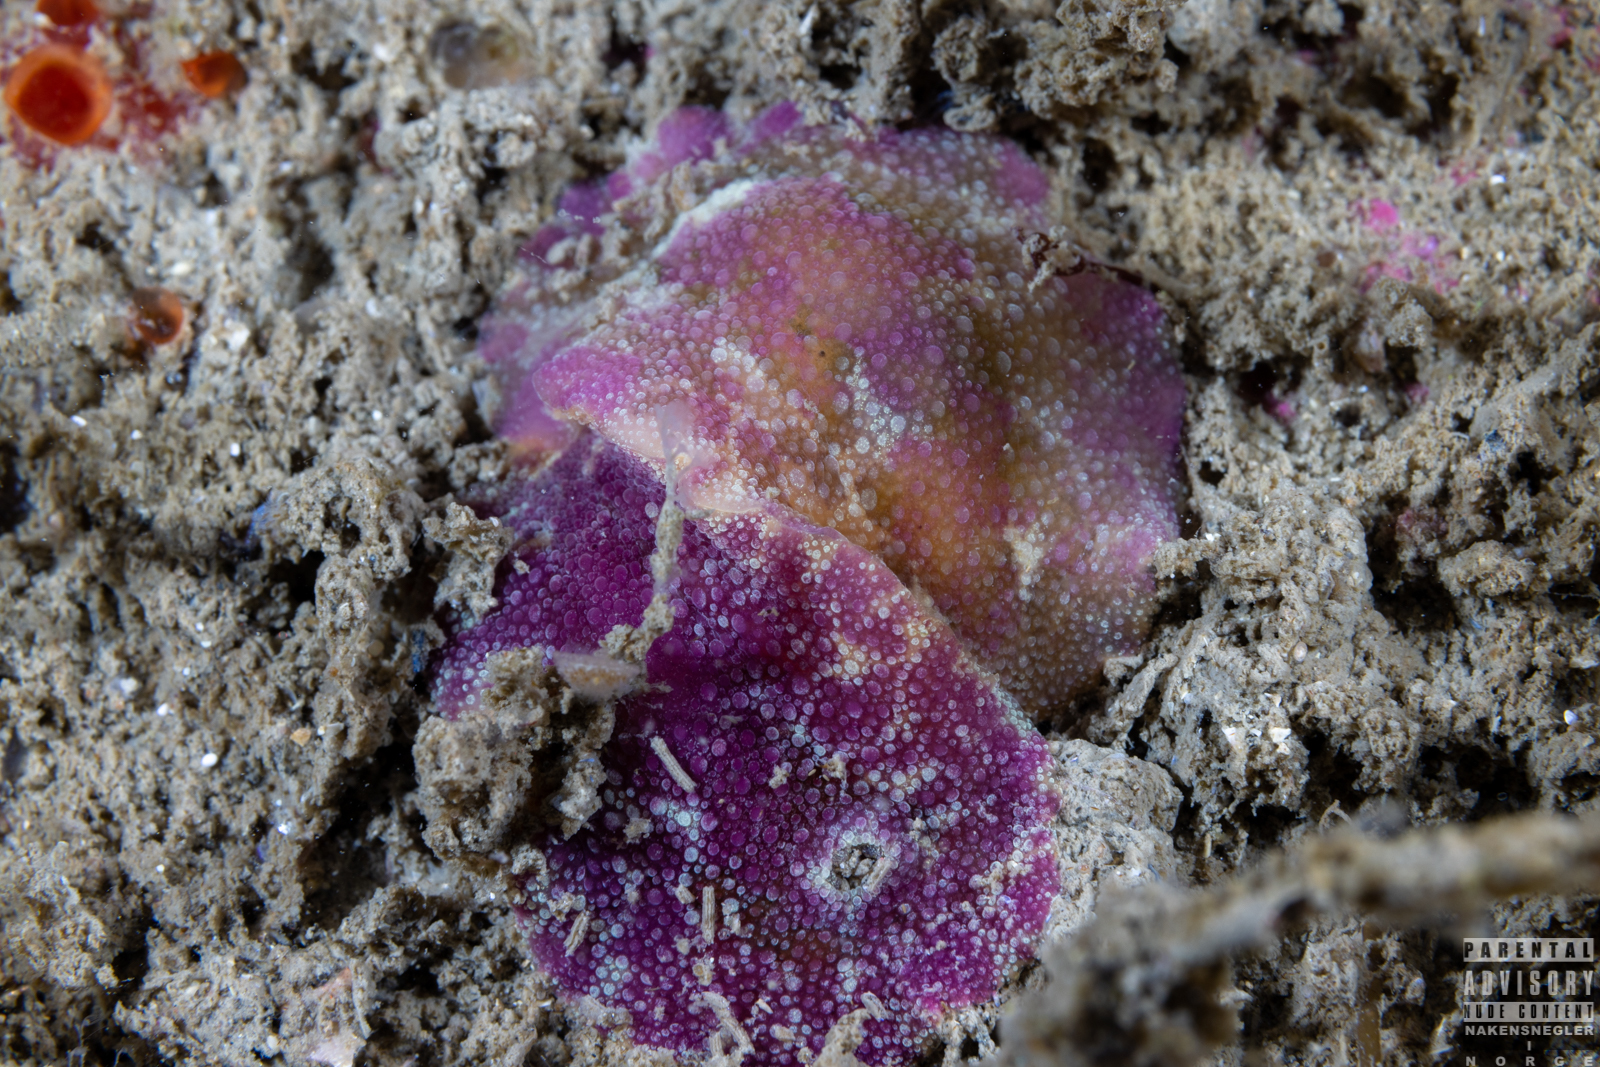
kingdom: Animalia
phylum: Mollusca
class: Gastropoda
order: Nudibranchia
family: Dorididae
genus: Doris
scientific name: Doris pseudoargus
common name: Sea lemon
